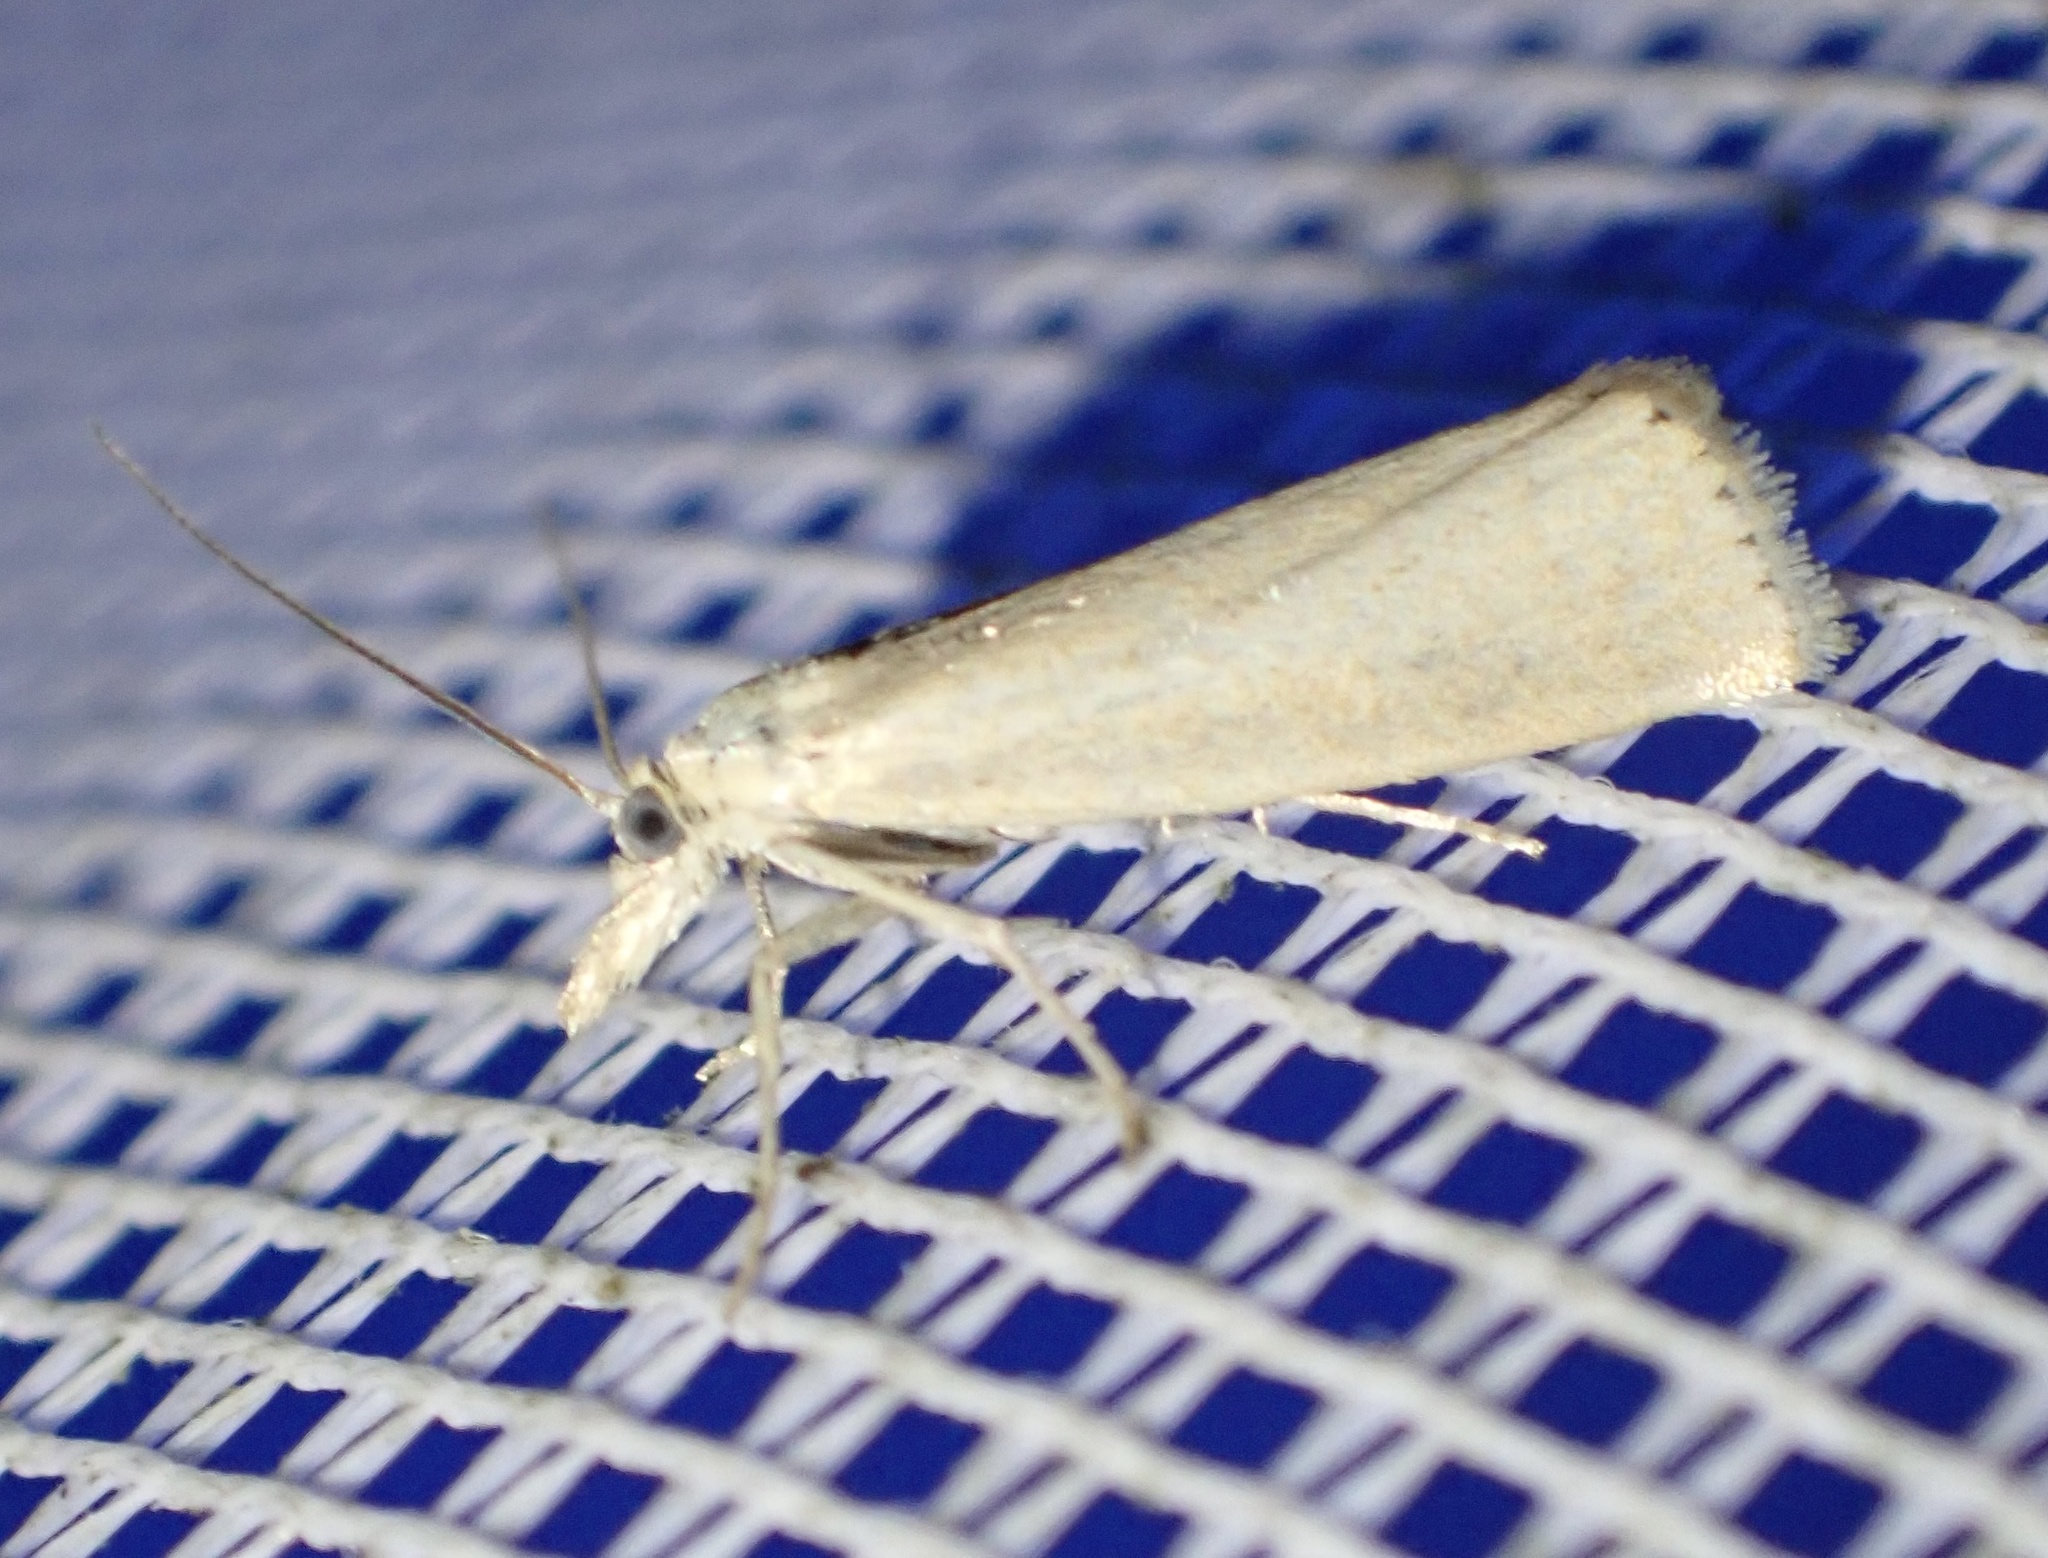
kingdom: Animalia
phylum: Arthropoda
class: Insecta
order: Lepidoptera
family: Crambidae
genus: Crambus
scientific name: Crambus perlellus
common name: Yellow satin veneer
